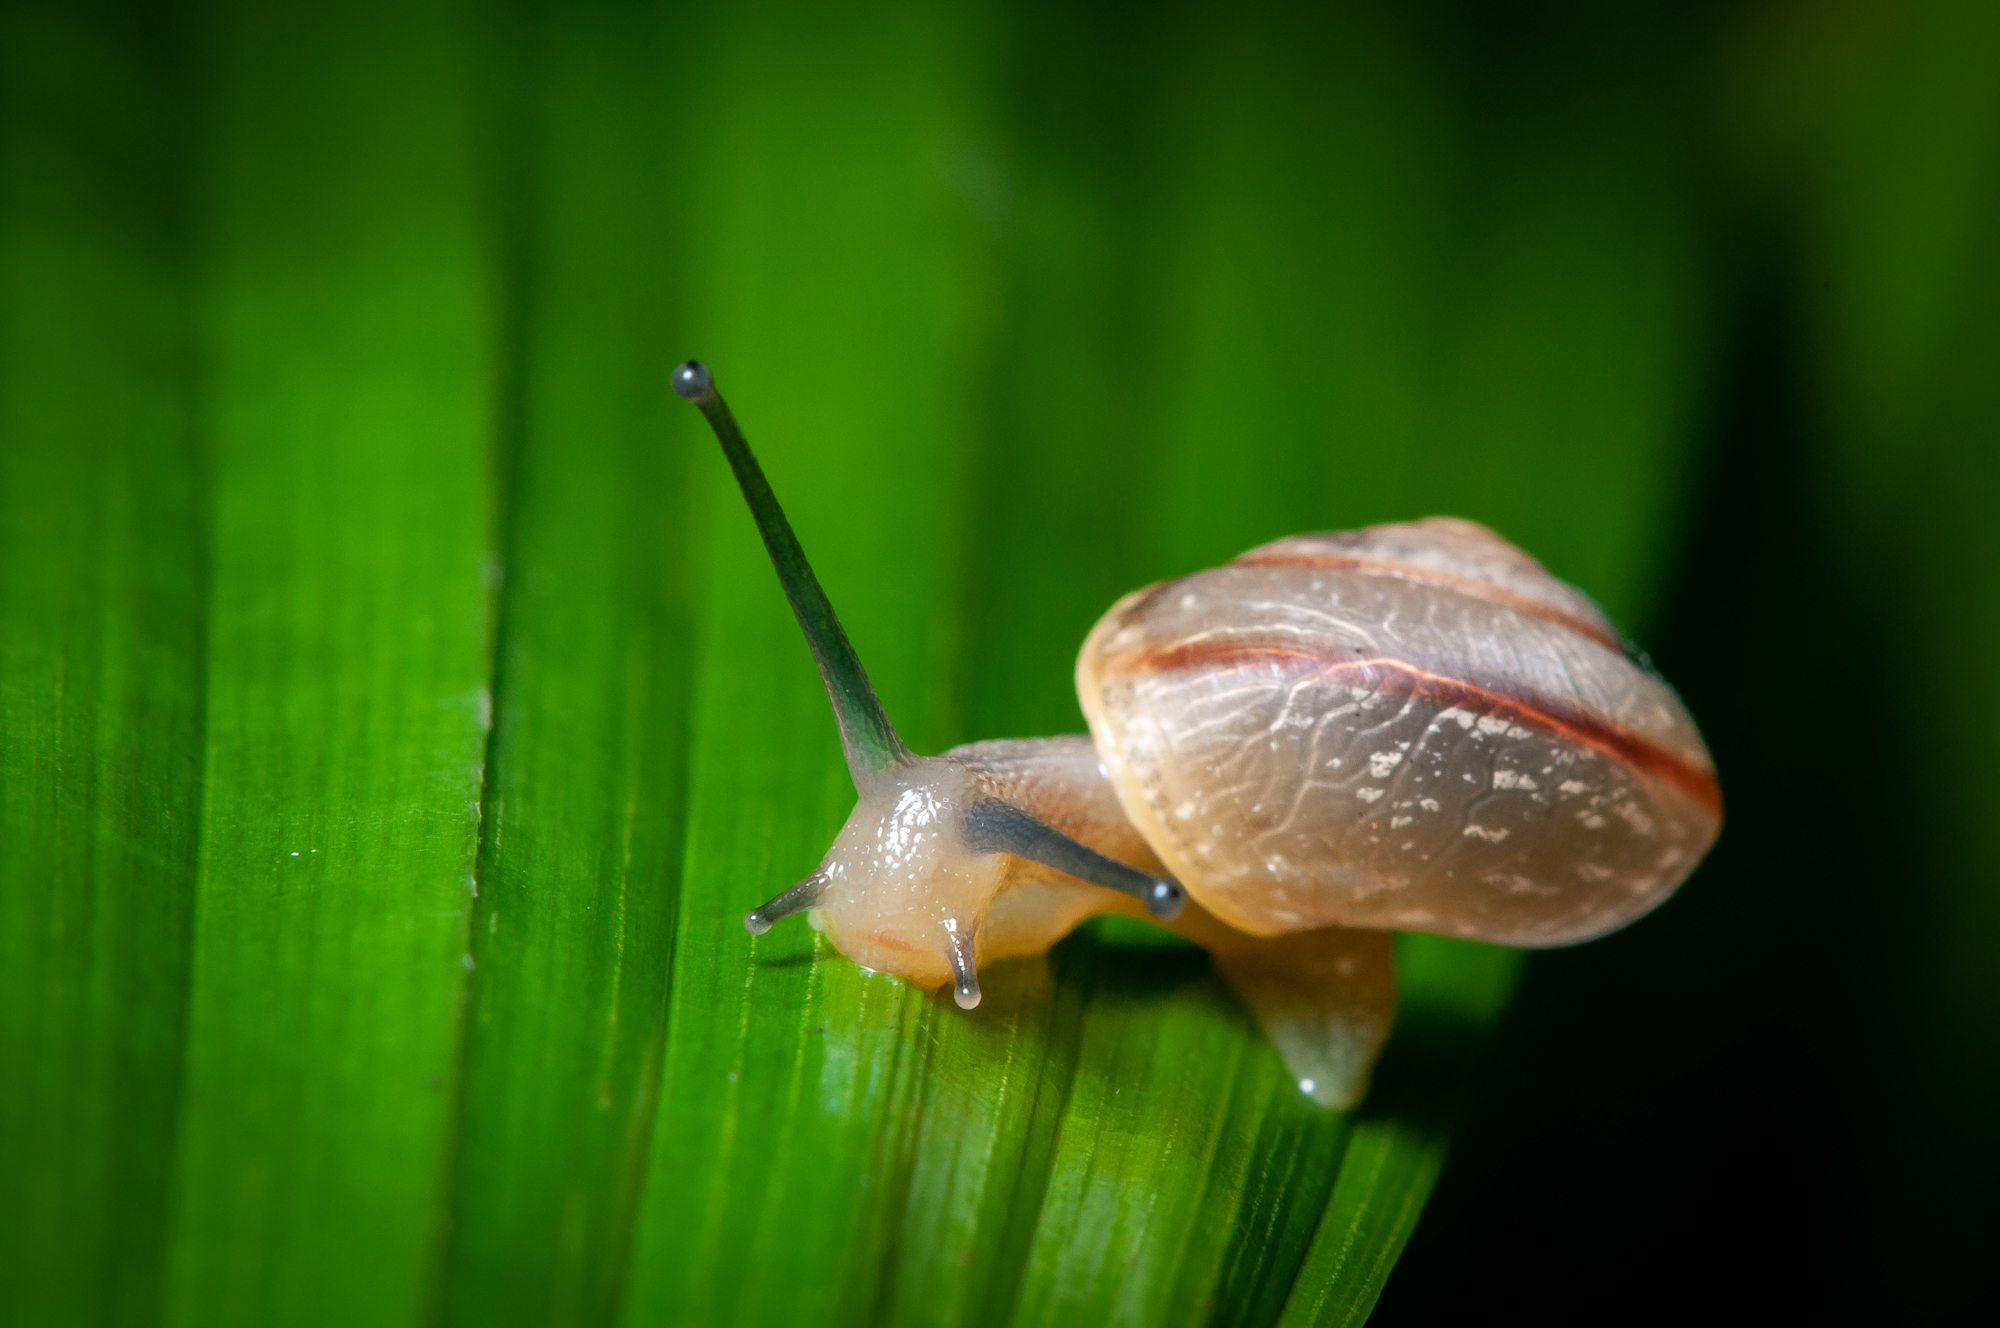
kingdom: Animalia
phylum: Mollusca
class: Gastropoda
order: Stylommatophora
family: Camaenidae
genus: Bradybaena
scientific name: Bradybaena similaris
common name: Asian trampsnail
